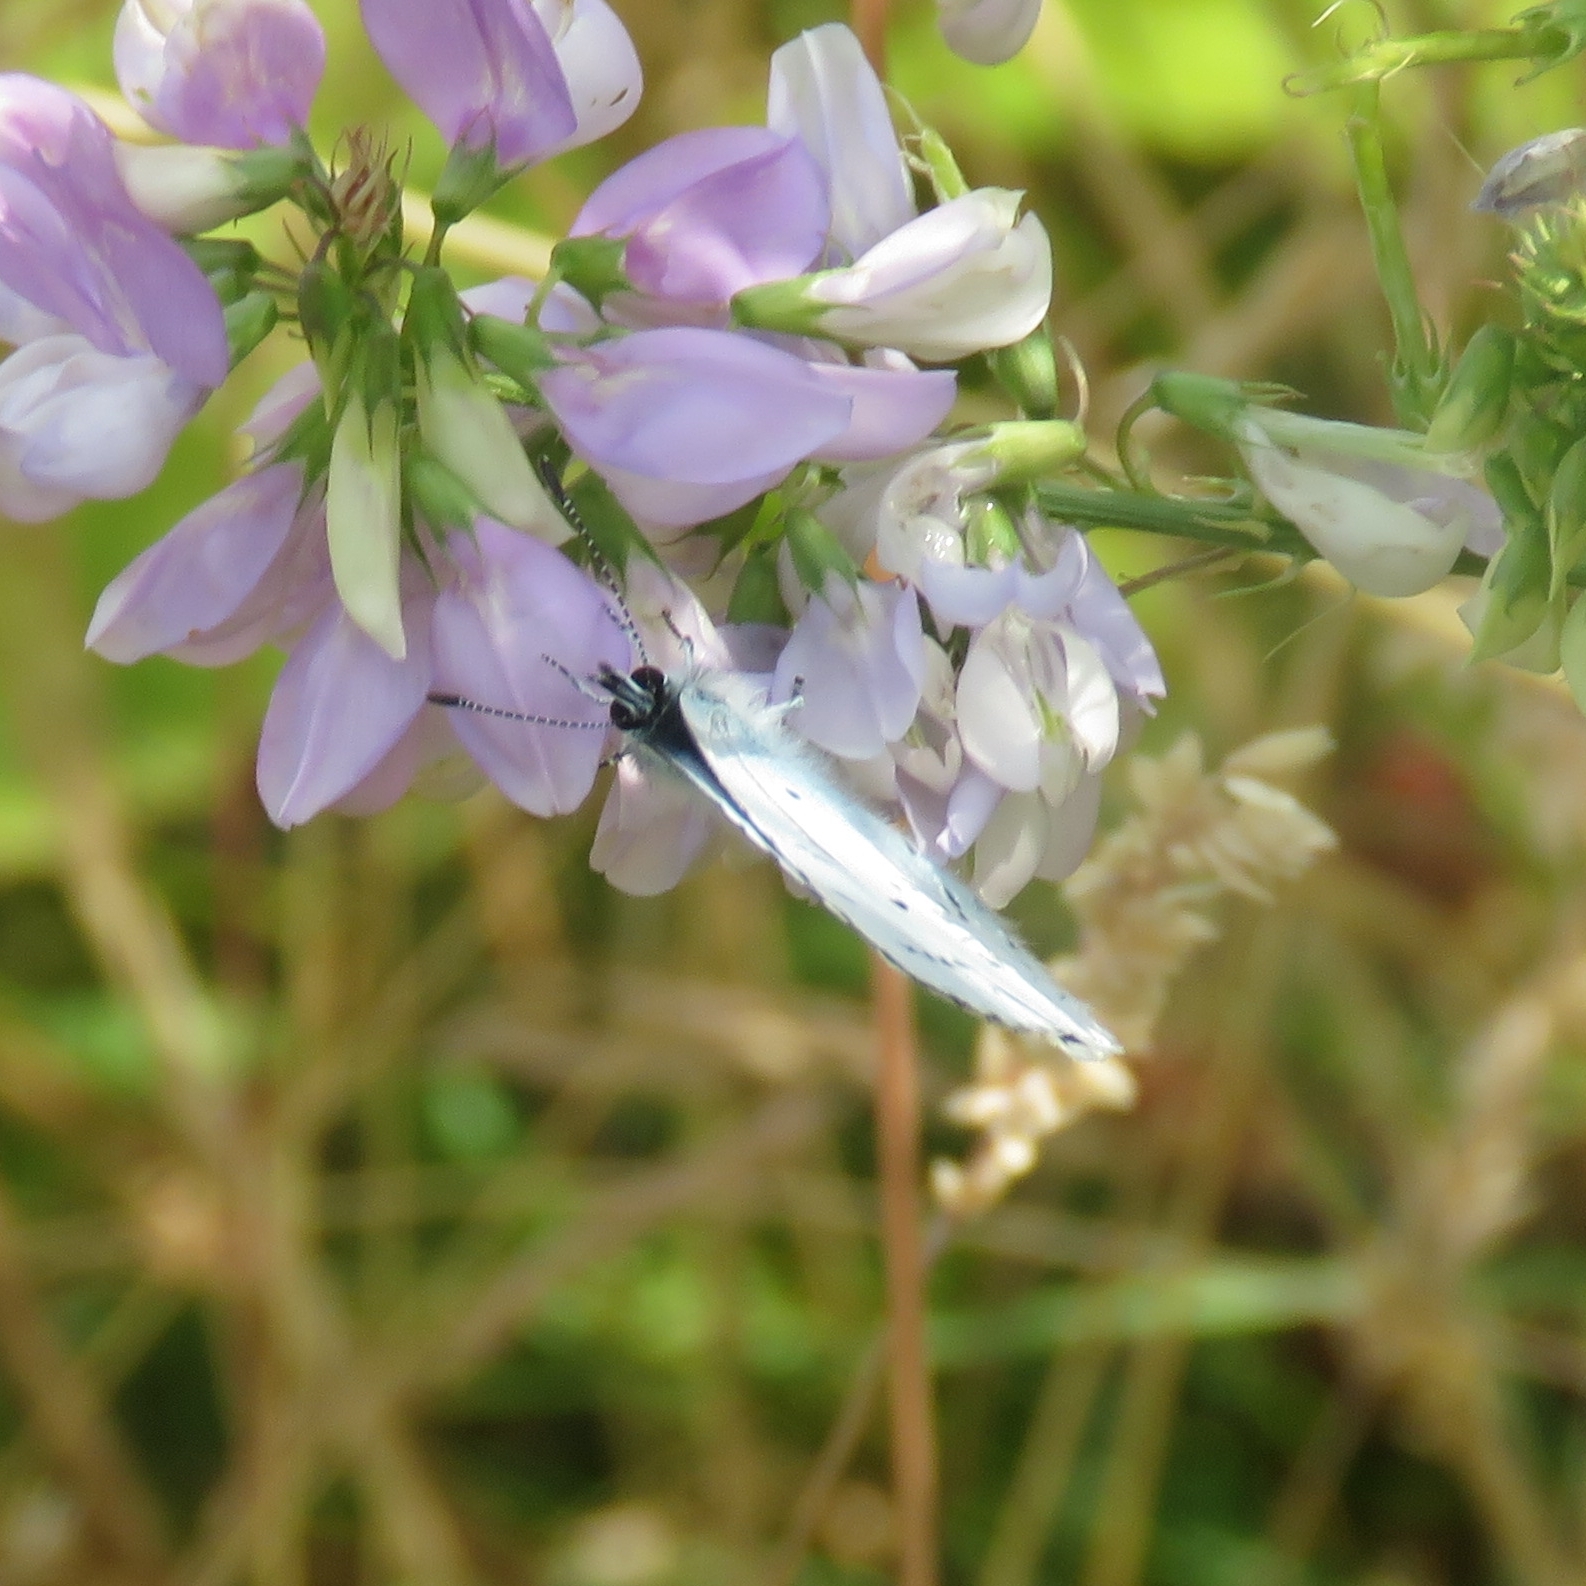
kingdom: Animalia
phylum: Arthropoda
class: Insecta
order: Lepidoptera
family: Lycaenidae
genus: Celastrina
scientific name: Celastrina argiolus
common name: Holly blue
